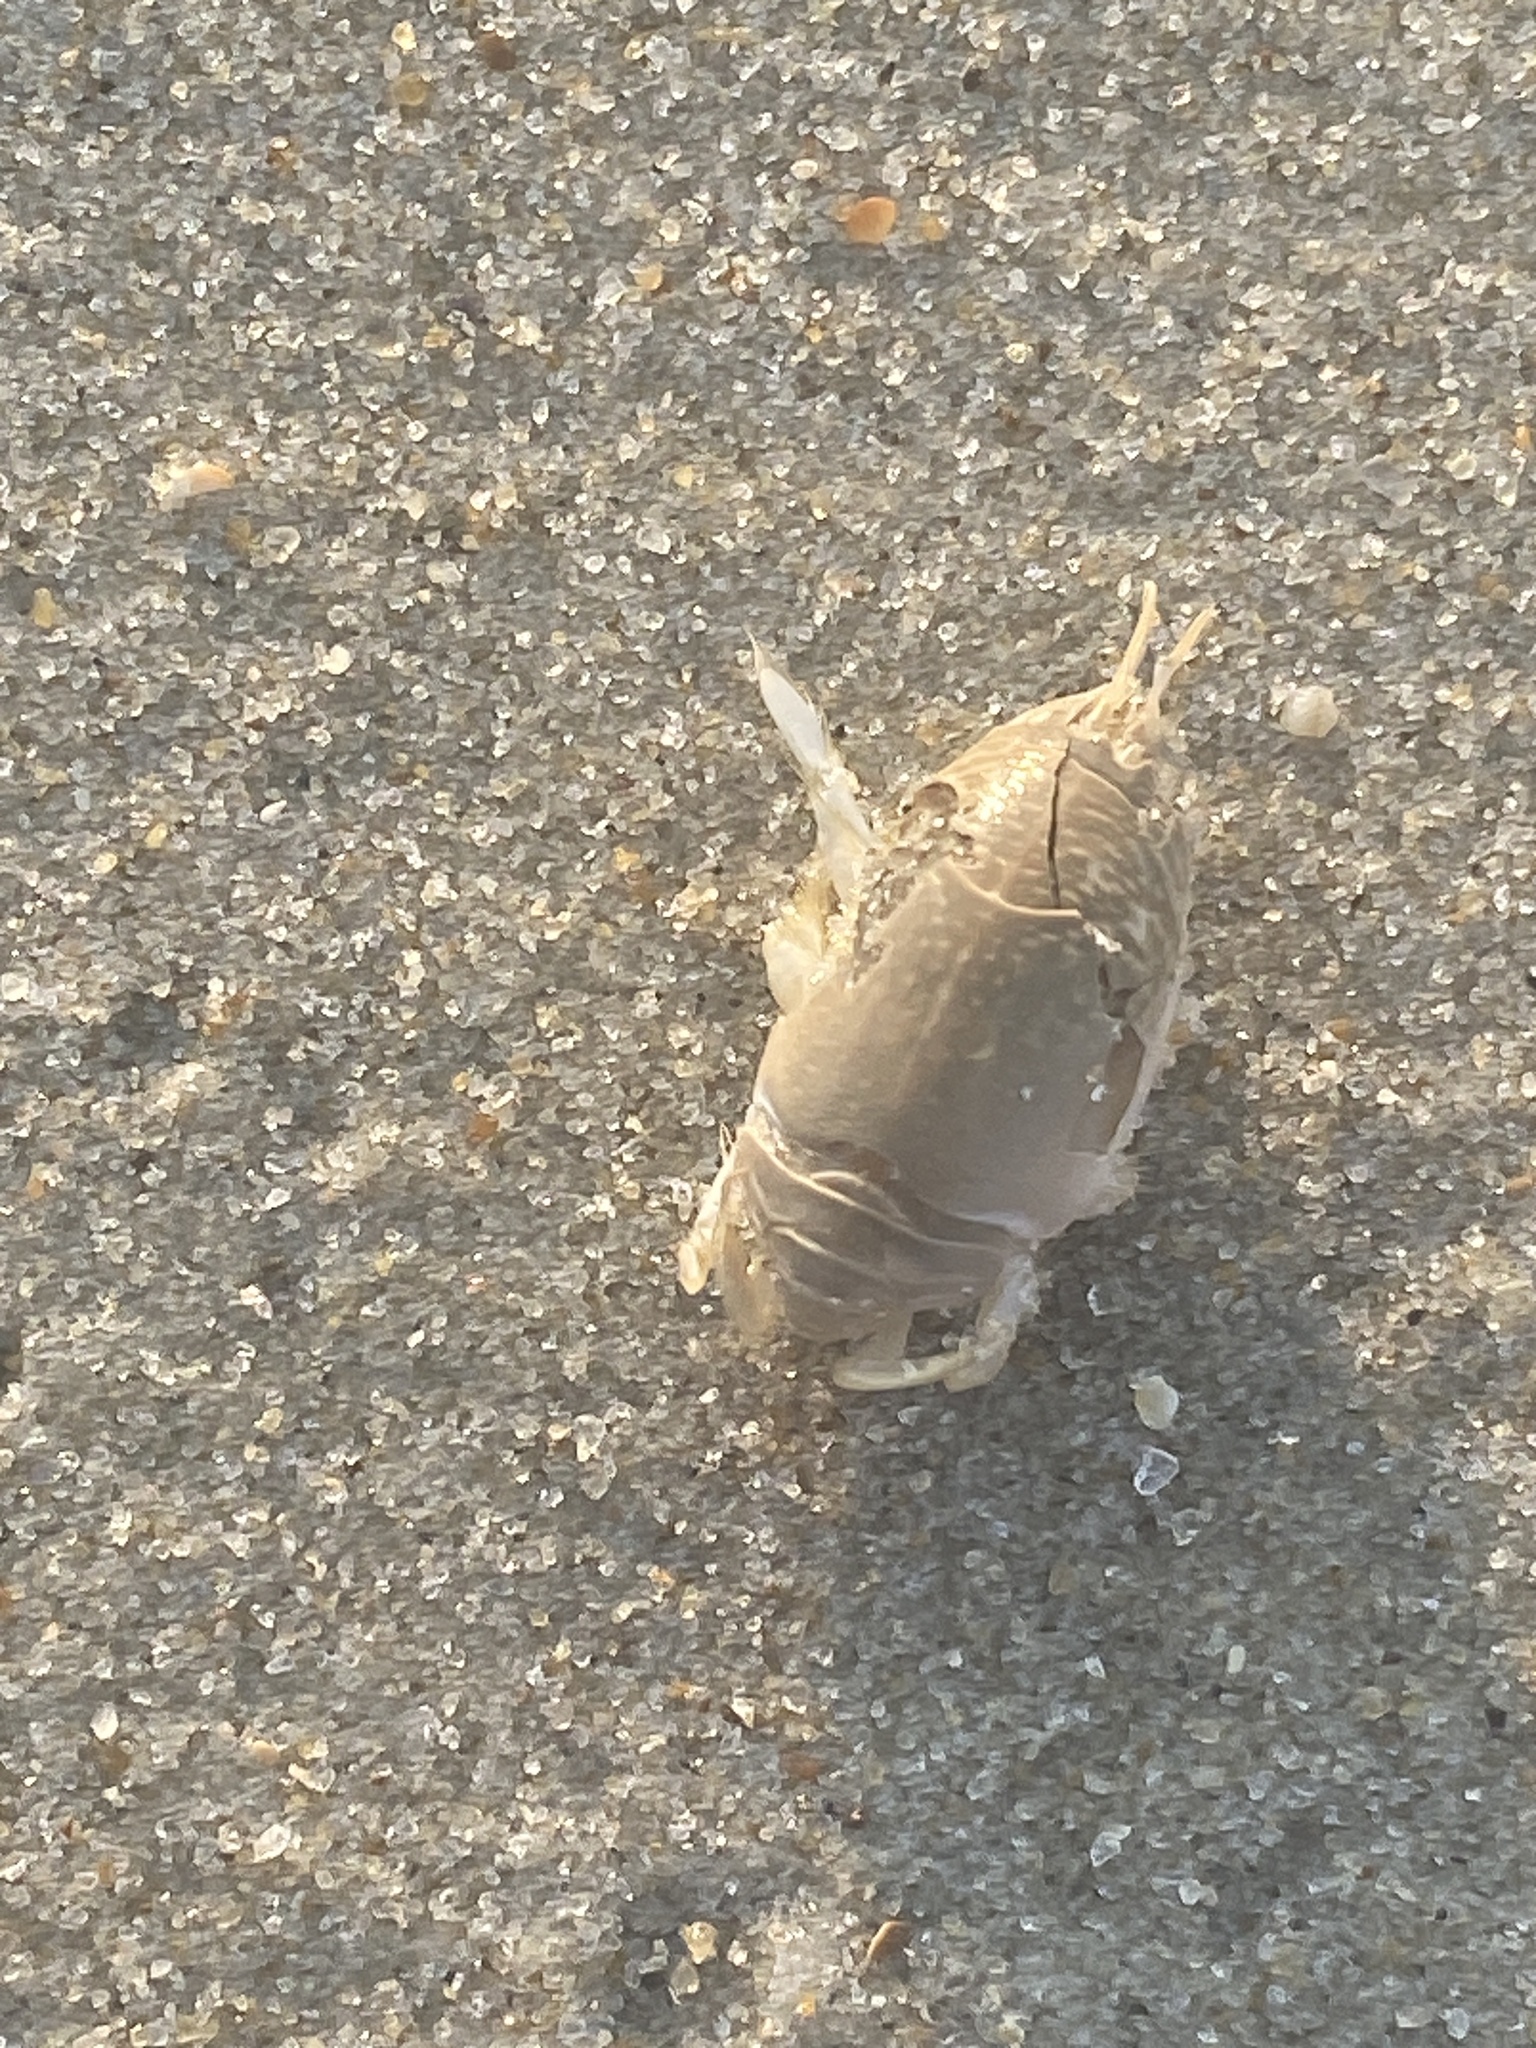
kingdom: Animalia
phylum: Arthropoda
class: Malacostraca
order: Decapoda
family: Hippidae
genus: Emerita
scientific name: Emerita talpoida
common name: Atlantic sand crab
